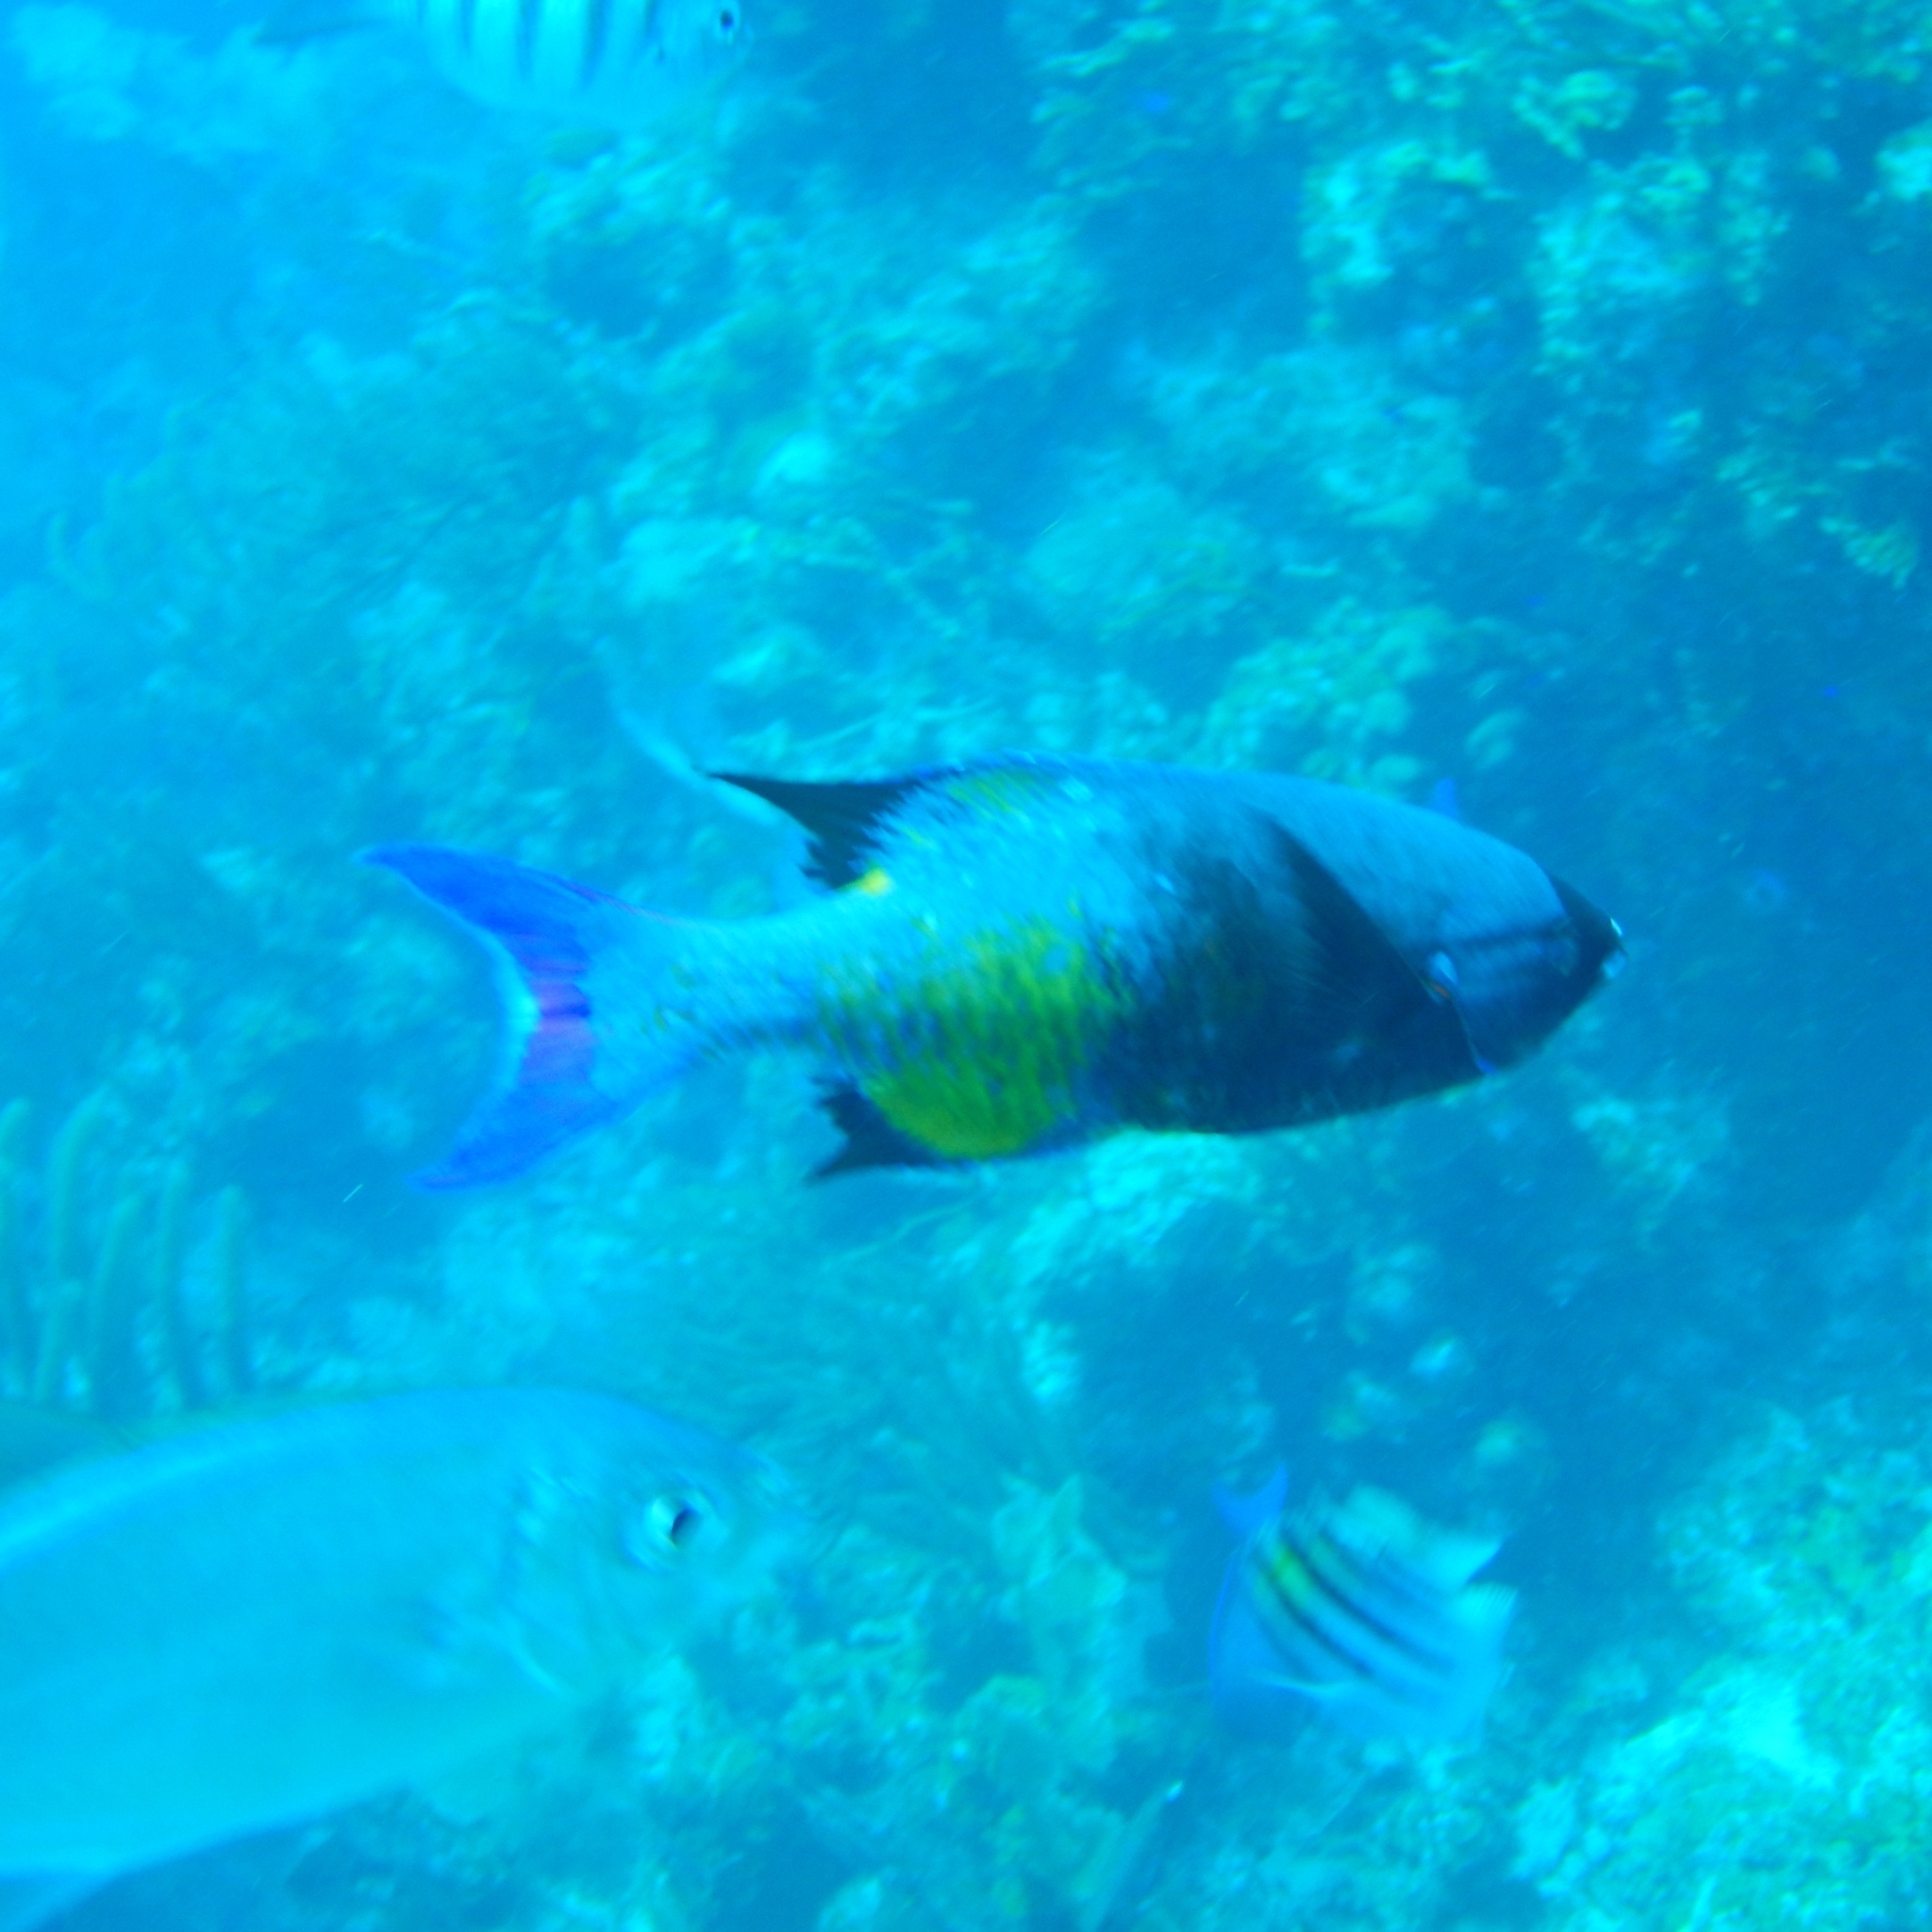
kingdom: Animalia
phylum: Chordata
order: Perciformes
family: Labridae
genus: Bodianus
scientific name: Bodianus
